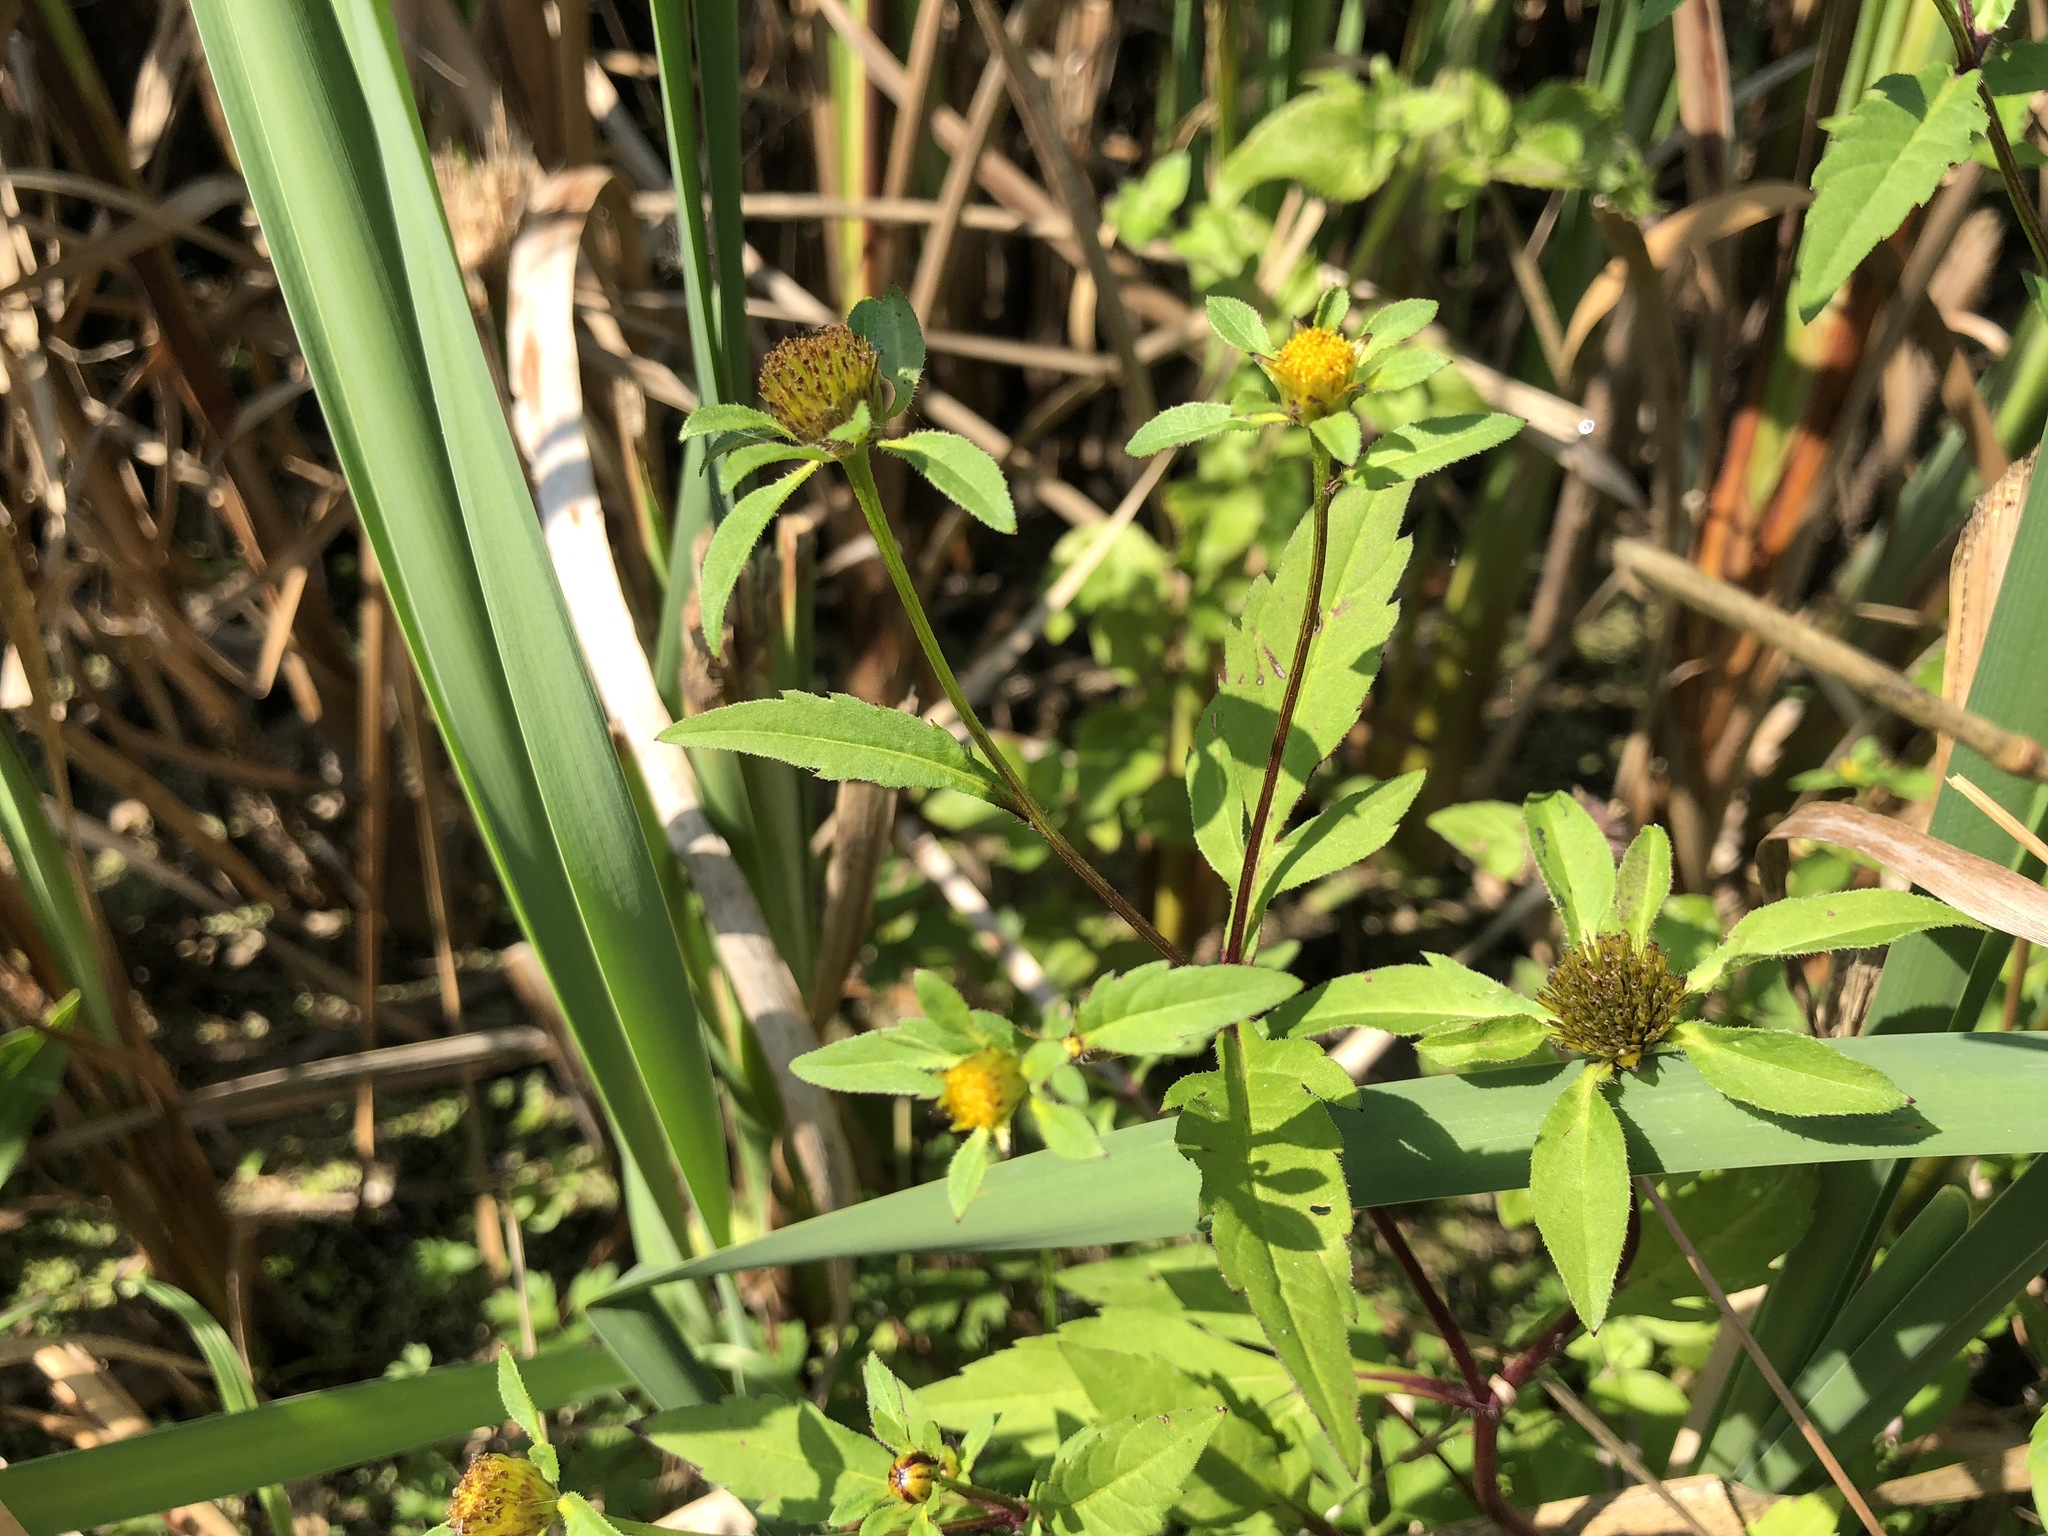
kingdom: Plantae
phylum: Tracheophyta
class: Magnoliopsida
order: Asterales
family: Asteraceae
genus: Bidens
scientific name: Bidens tripartita
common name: Trifid bur-marigold
